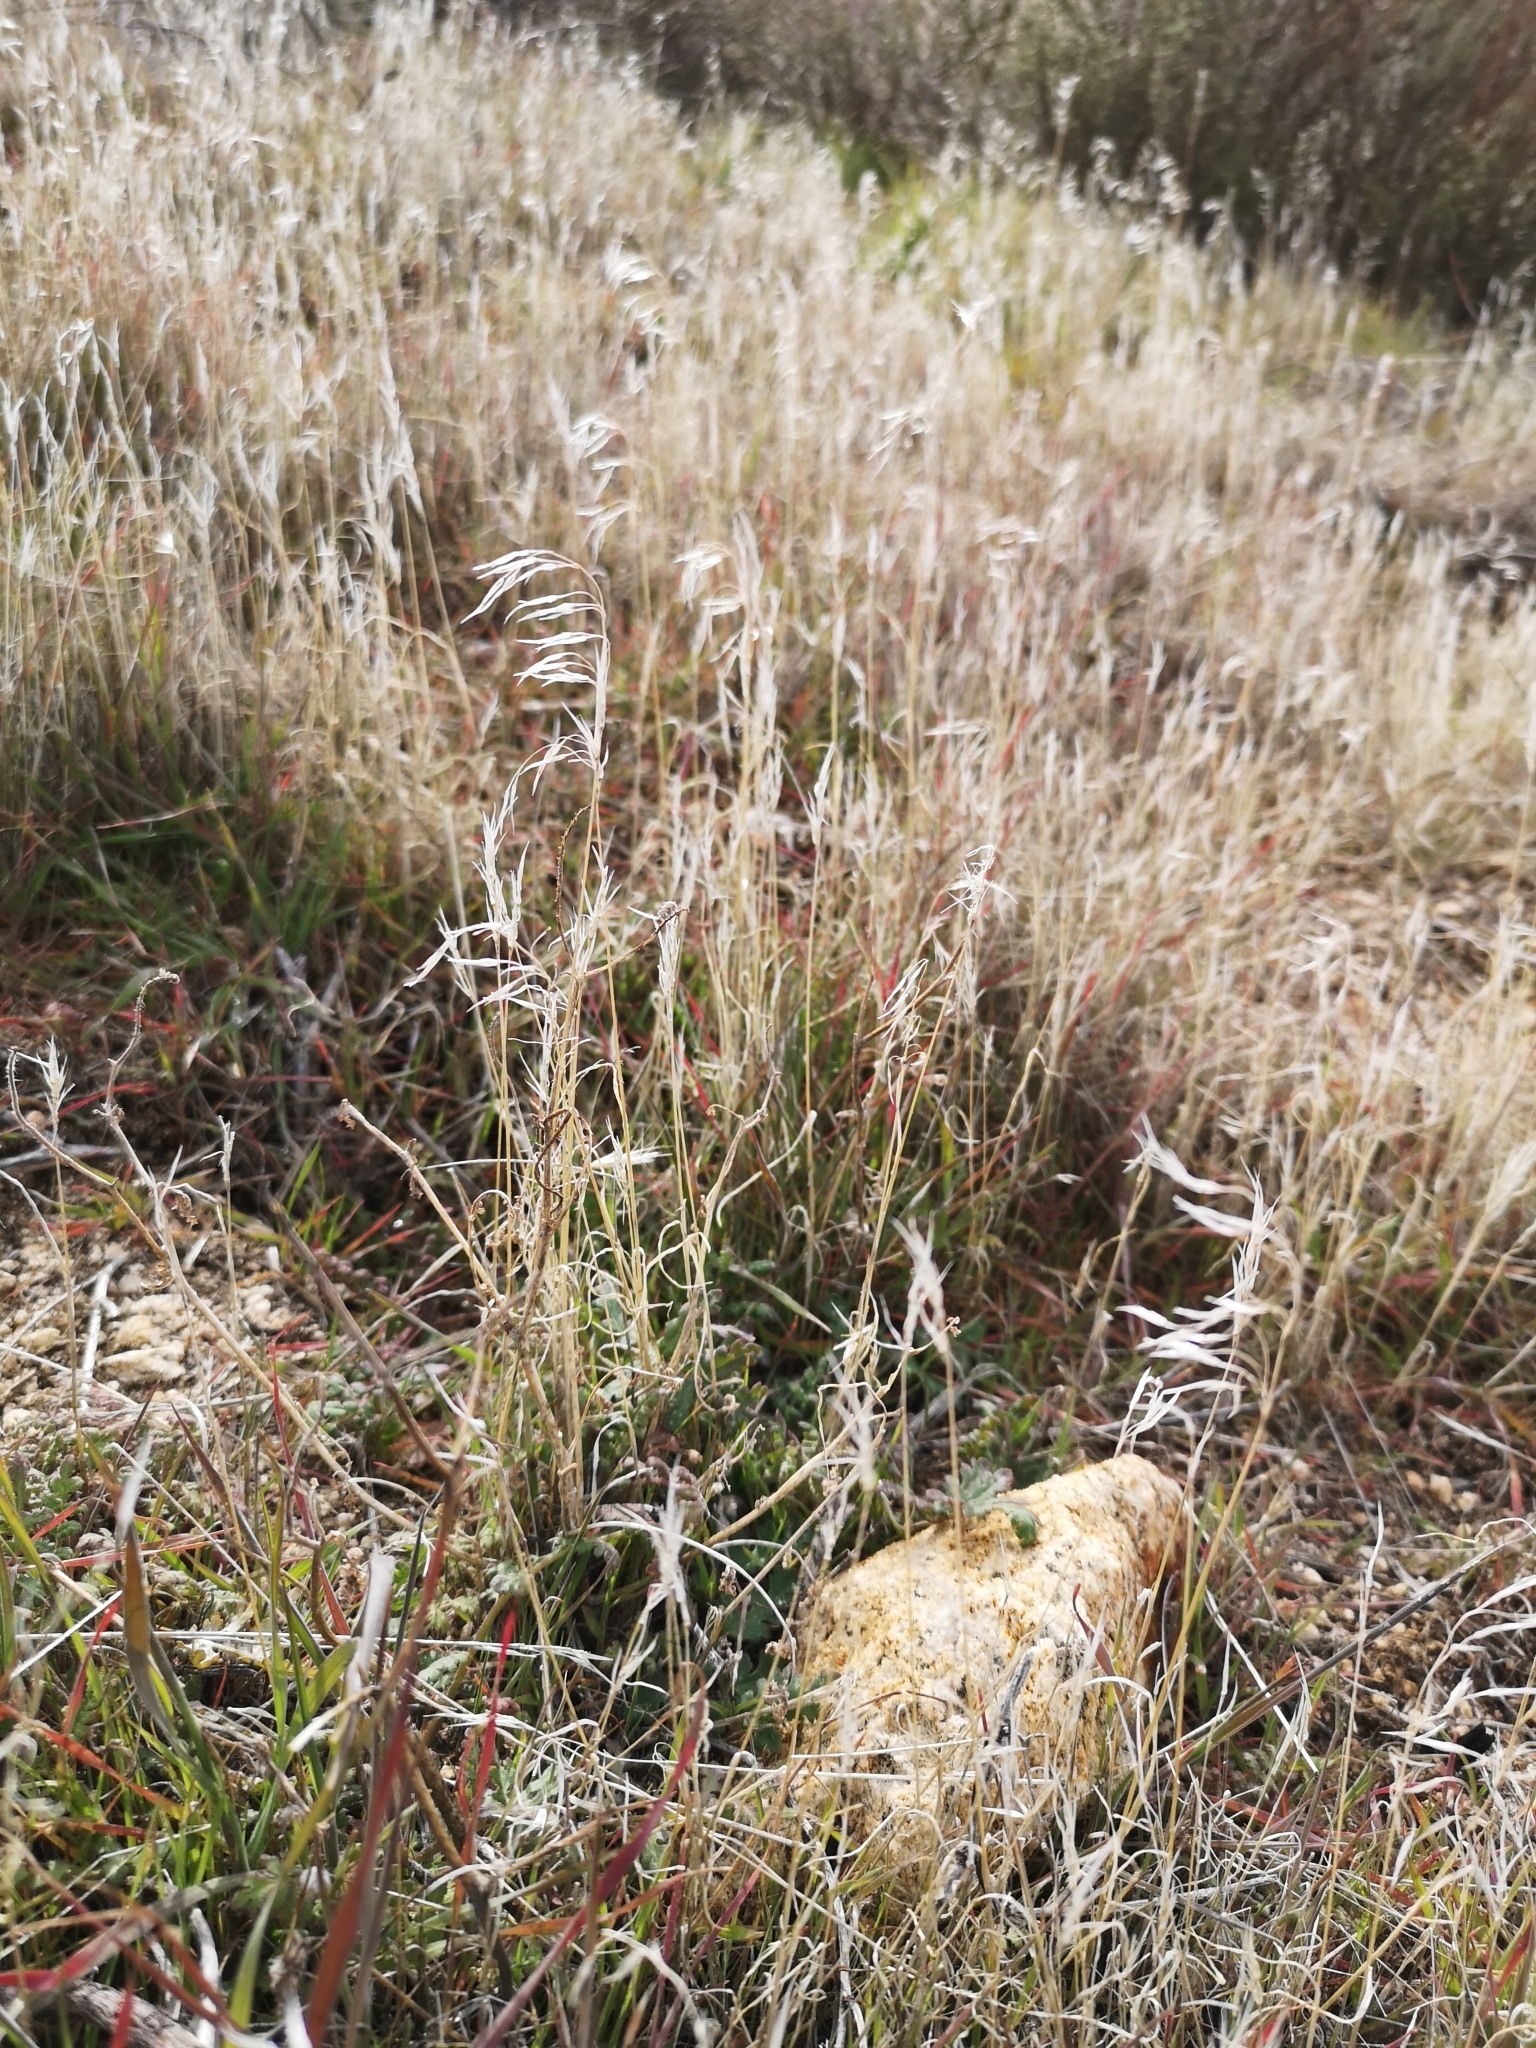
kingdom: Plantae
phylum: Tracheophyta
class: Liliopsida
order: Poales
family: Poaceae
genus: Bromus
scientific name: Bromus tectorum
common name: Cheatgrass
